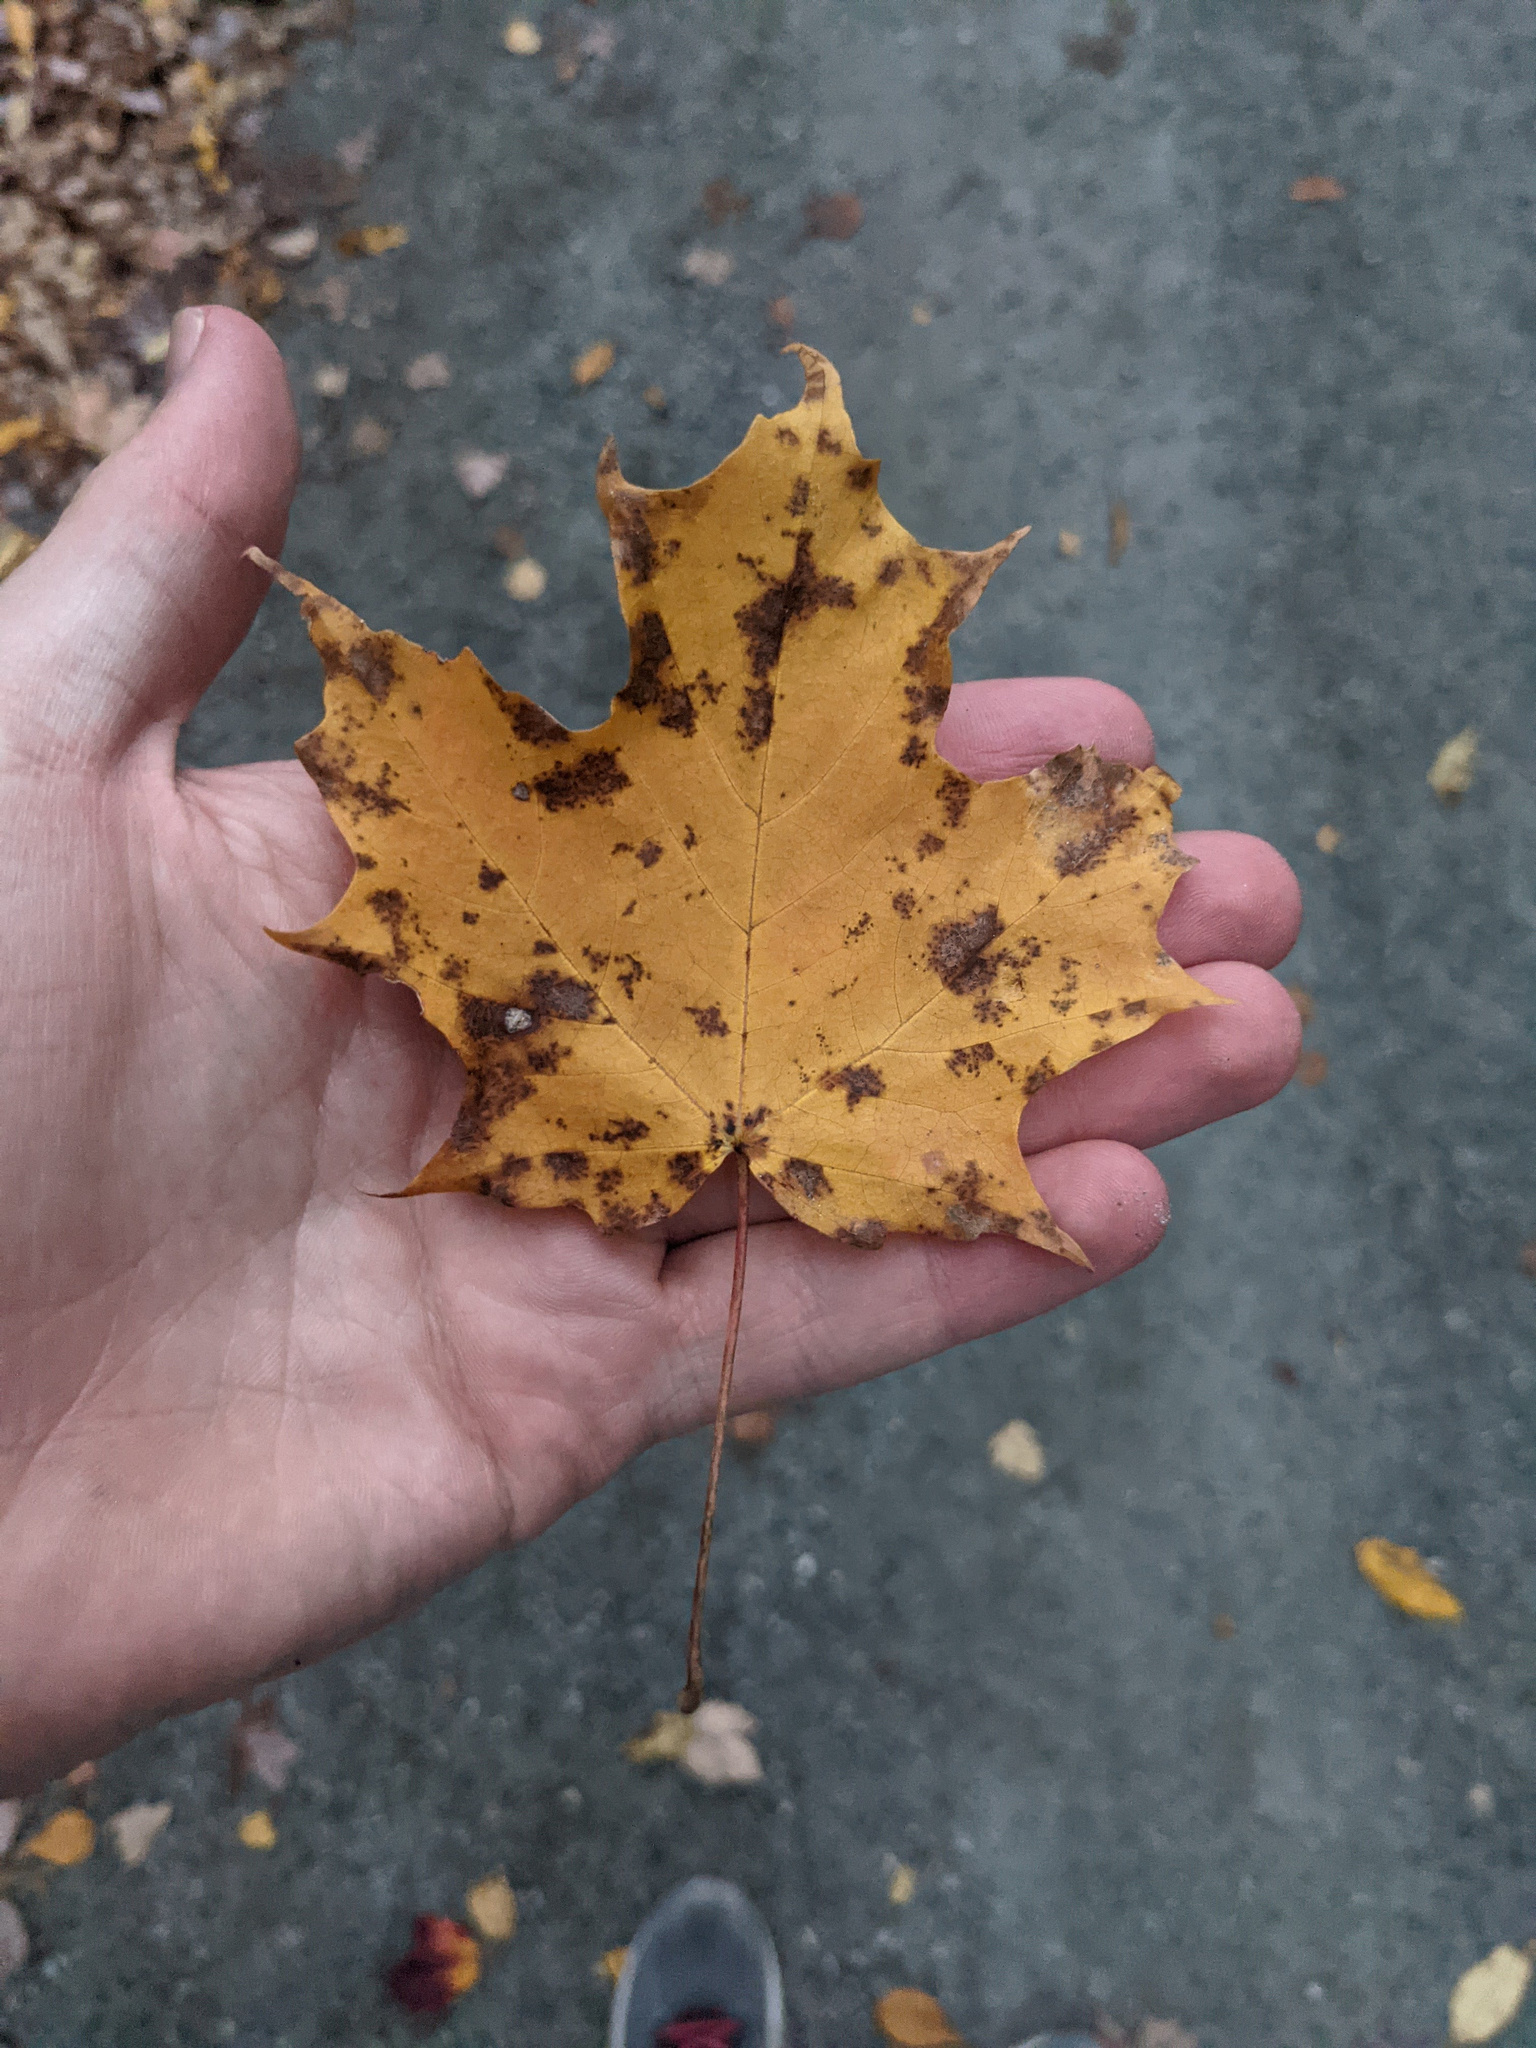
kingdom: Plantae
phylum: Tracheophyta
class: Magnoliopsida
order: Sapindales
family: Sapindaceae
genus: Acer
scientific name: Acer saccharum
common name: Sugar maple
